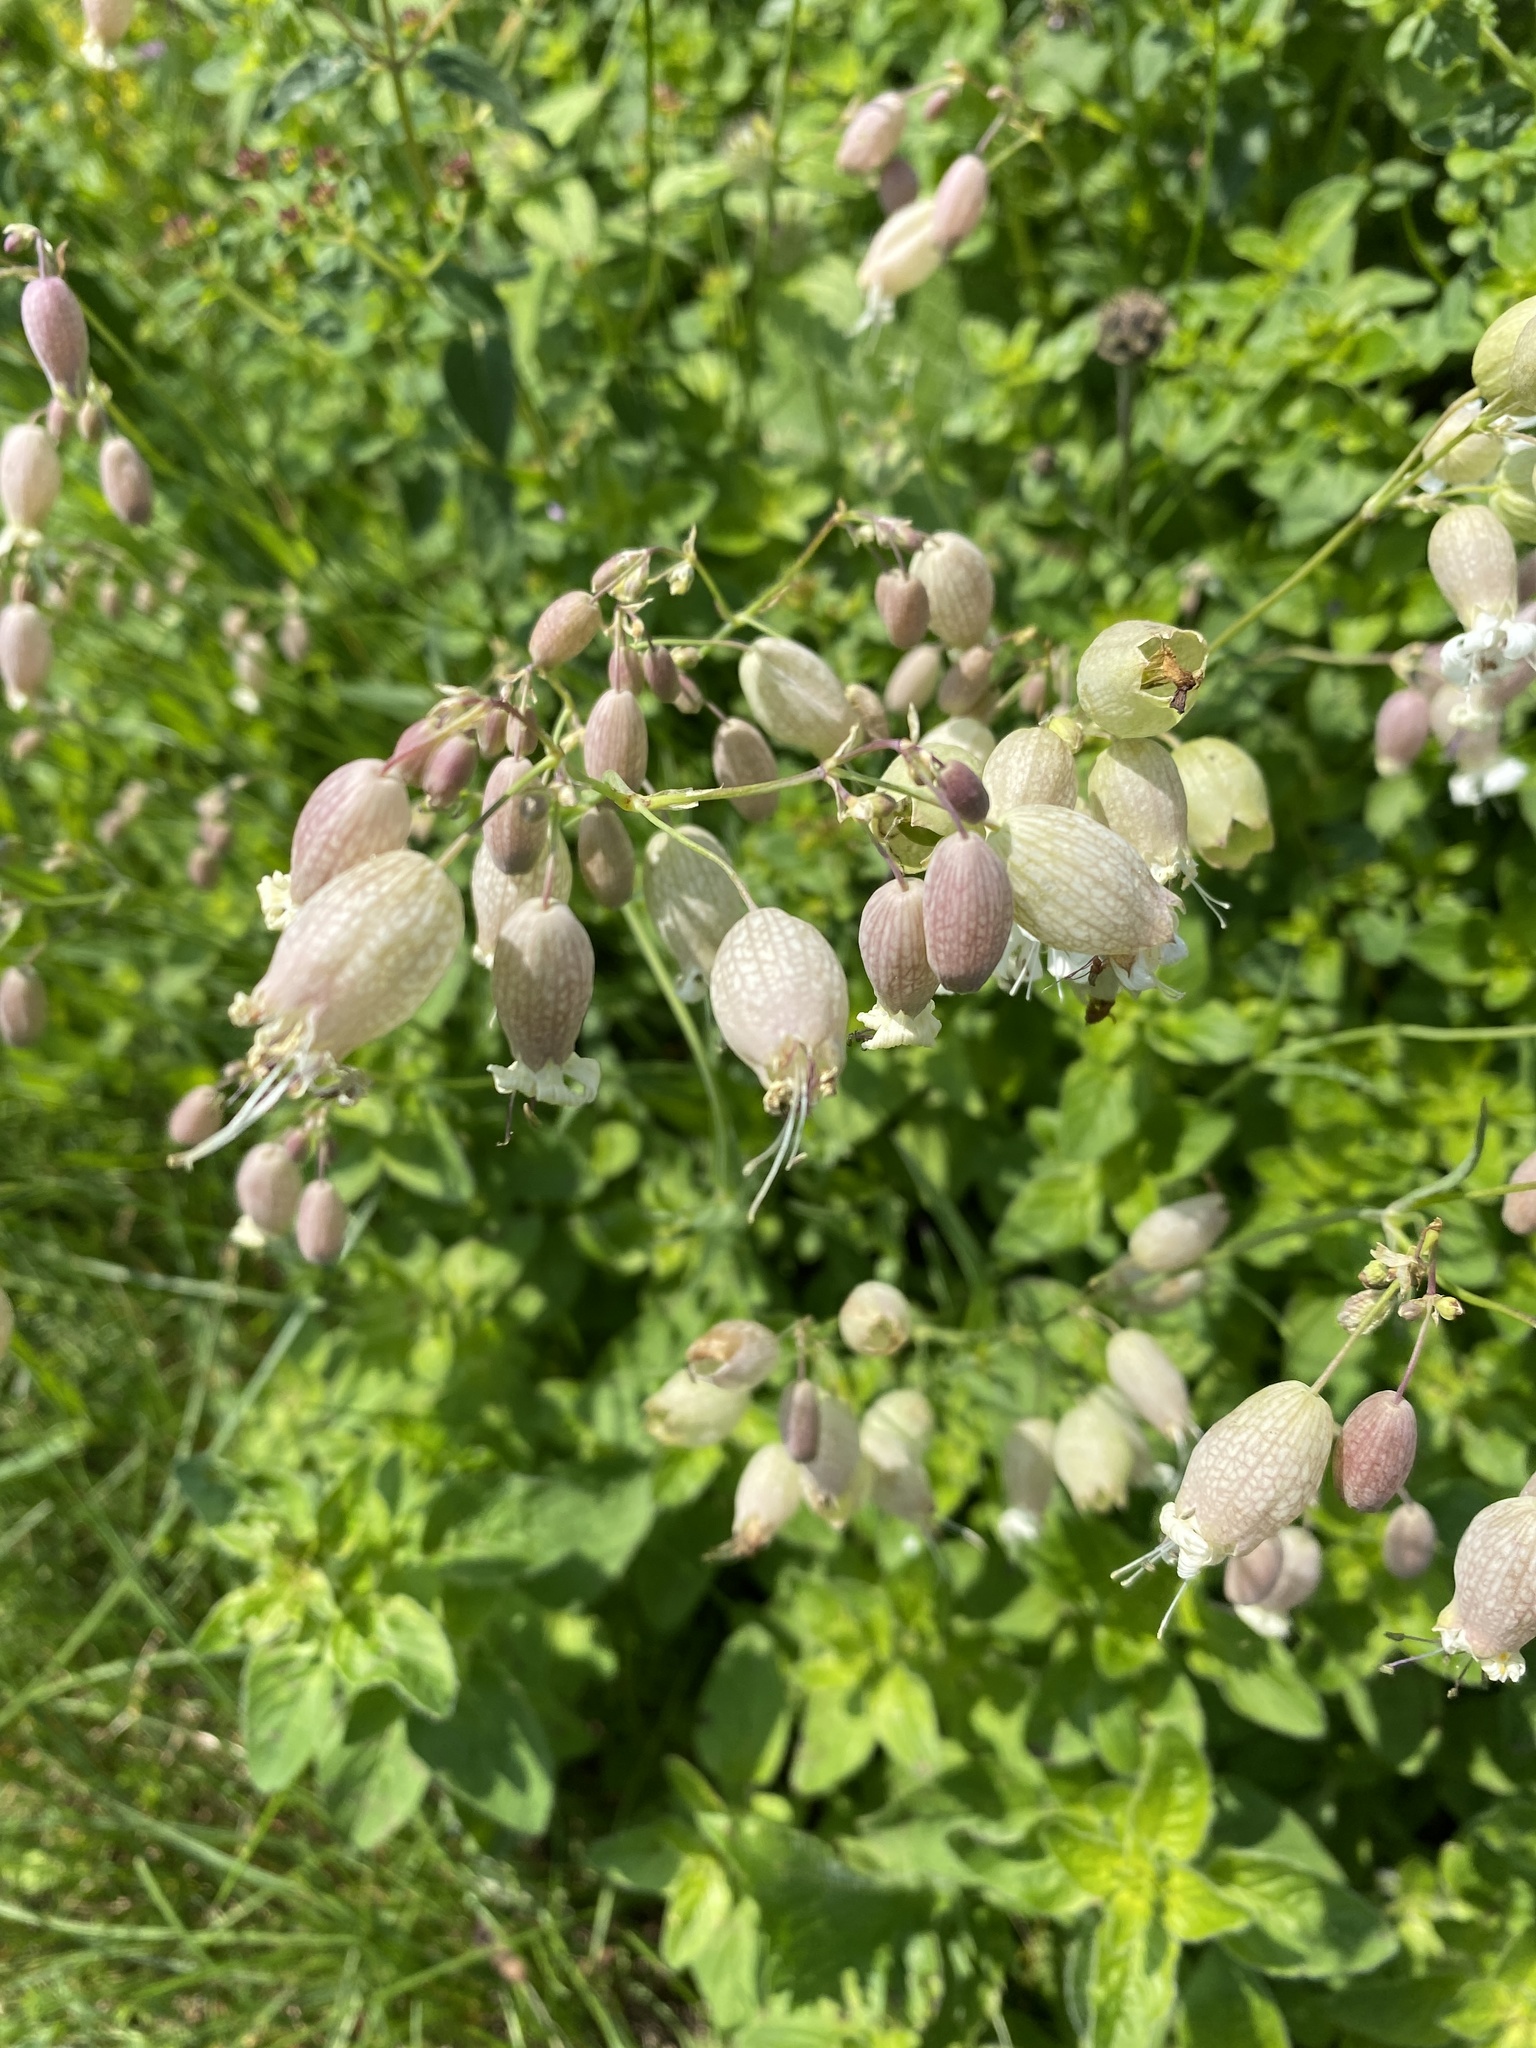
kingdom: Plantae
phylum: Tracheophyta
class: Magnoliopsida
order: Caryophyllales
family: Caryophyllaceae
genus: Silene
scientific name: Silene vulgaris
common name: Bladder campion
